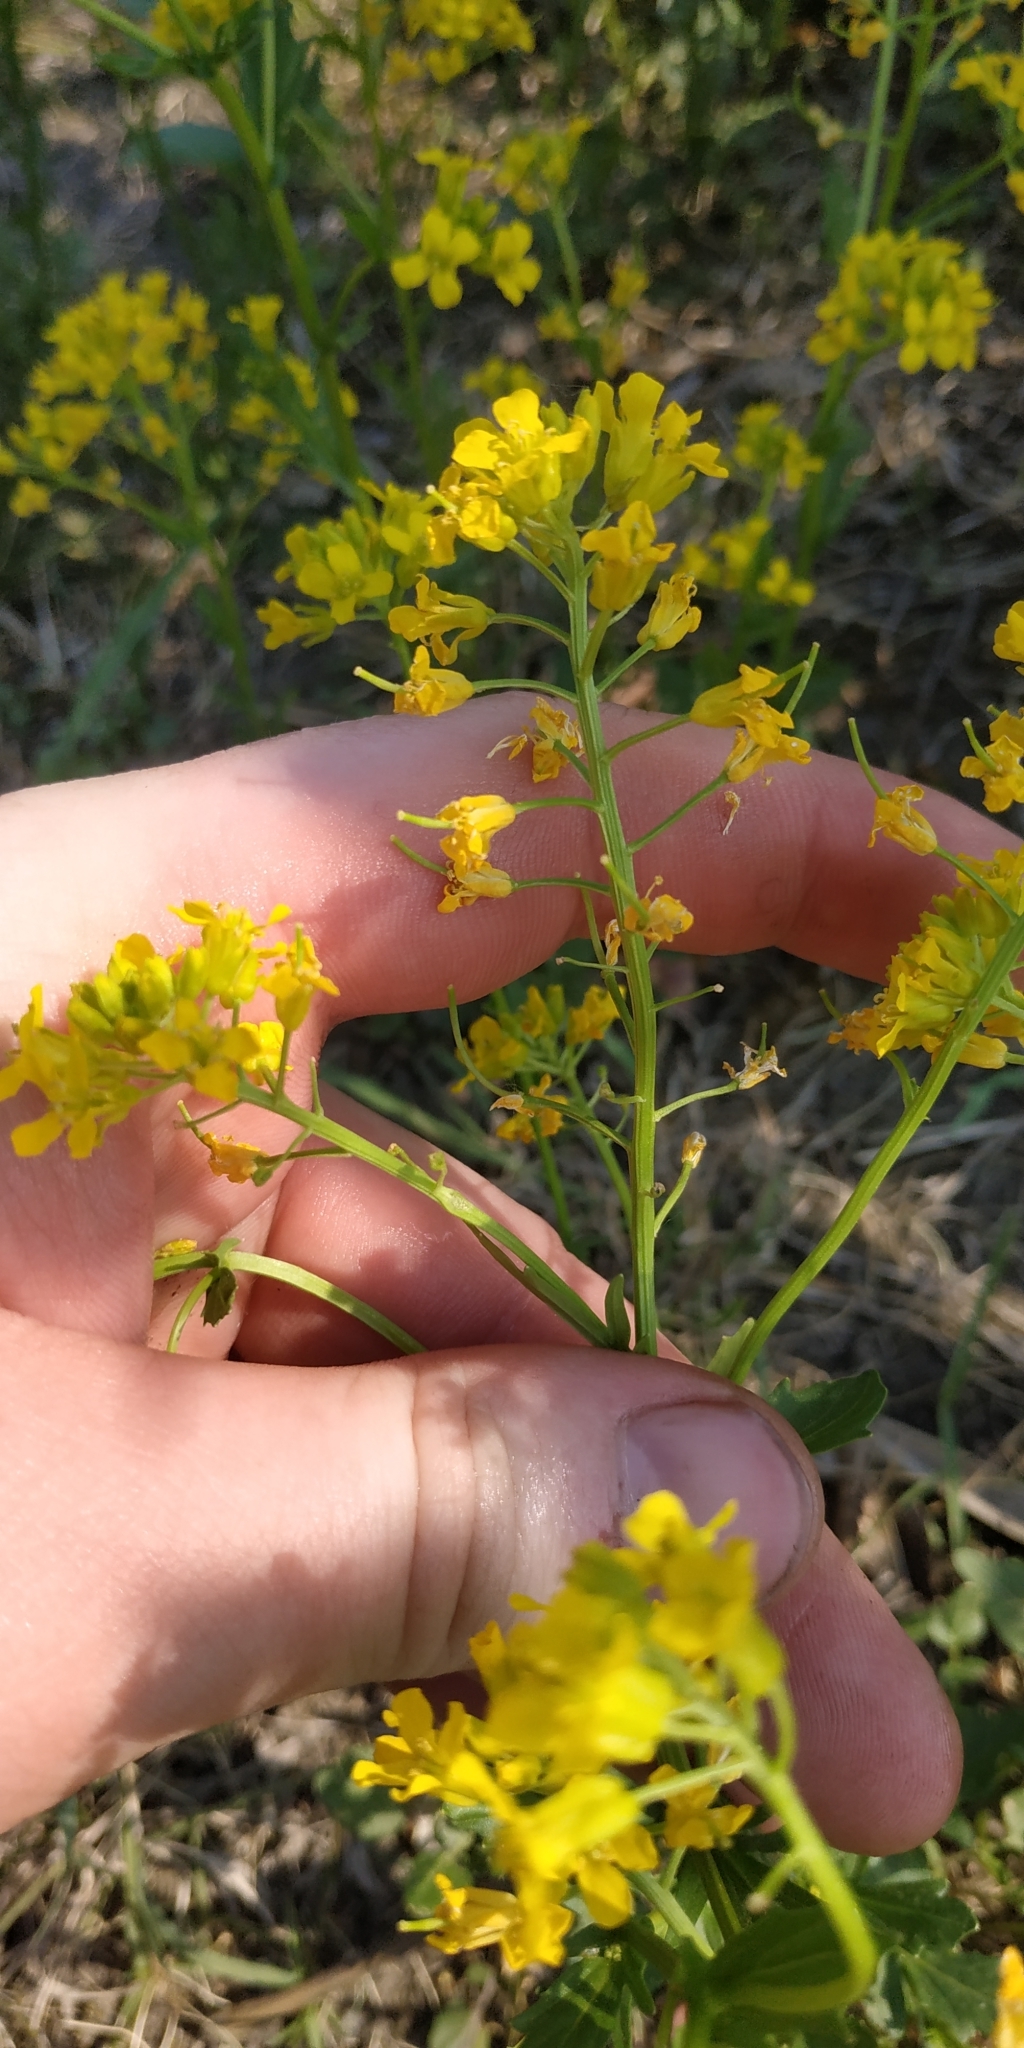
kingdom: Plantae
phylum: Tracheophyta
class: Magnoliopsida
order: Brassicales
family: Brassicaceae
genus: Barbarea
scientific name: Barbarea vulgaris
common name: Cressy-greens
